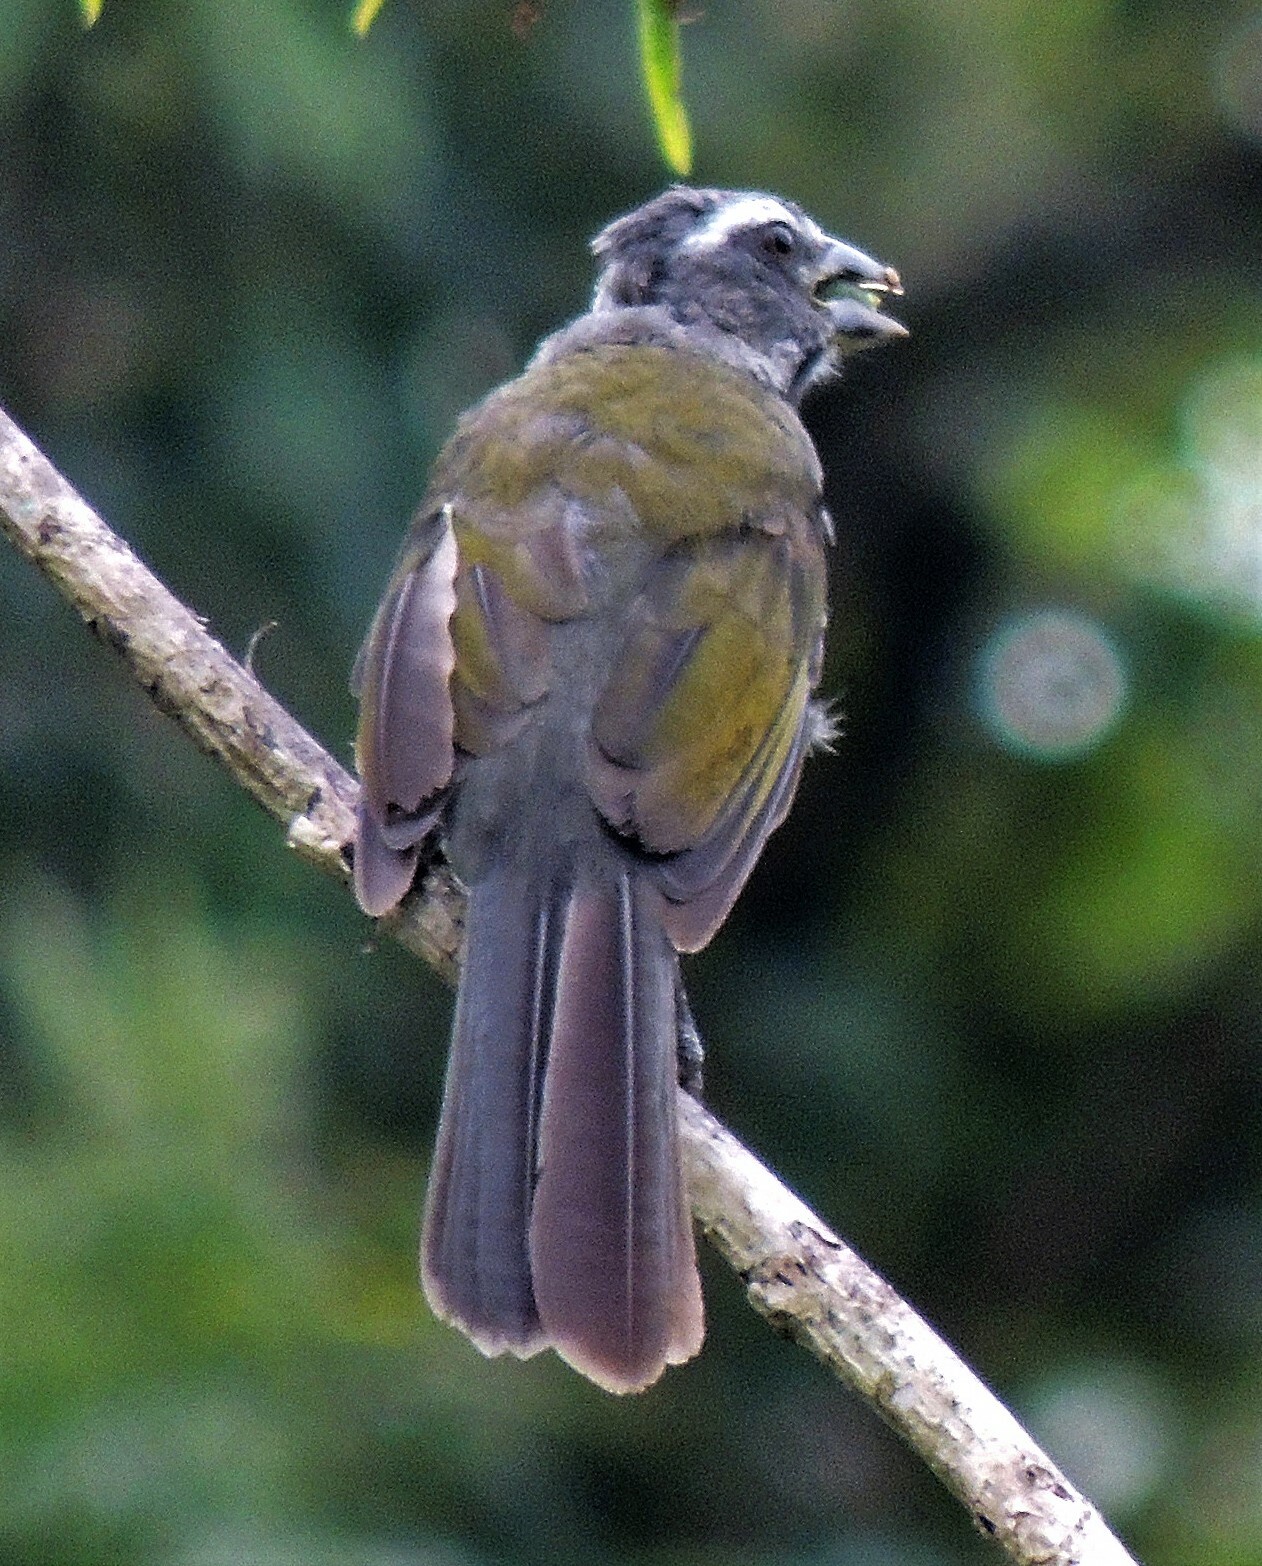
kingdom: Animalia
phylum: Chordata
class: Aves
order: Passeriformes
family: Thraupidae
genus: Saltator
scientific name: Saltator similis
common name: Green-winged saltator
